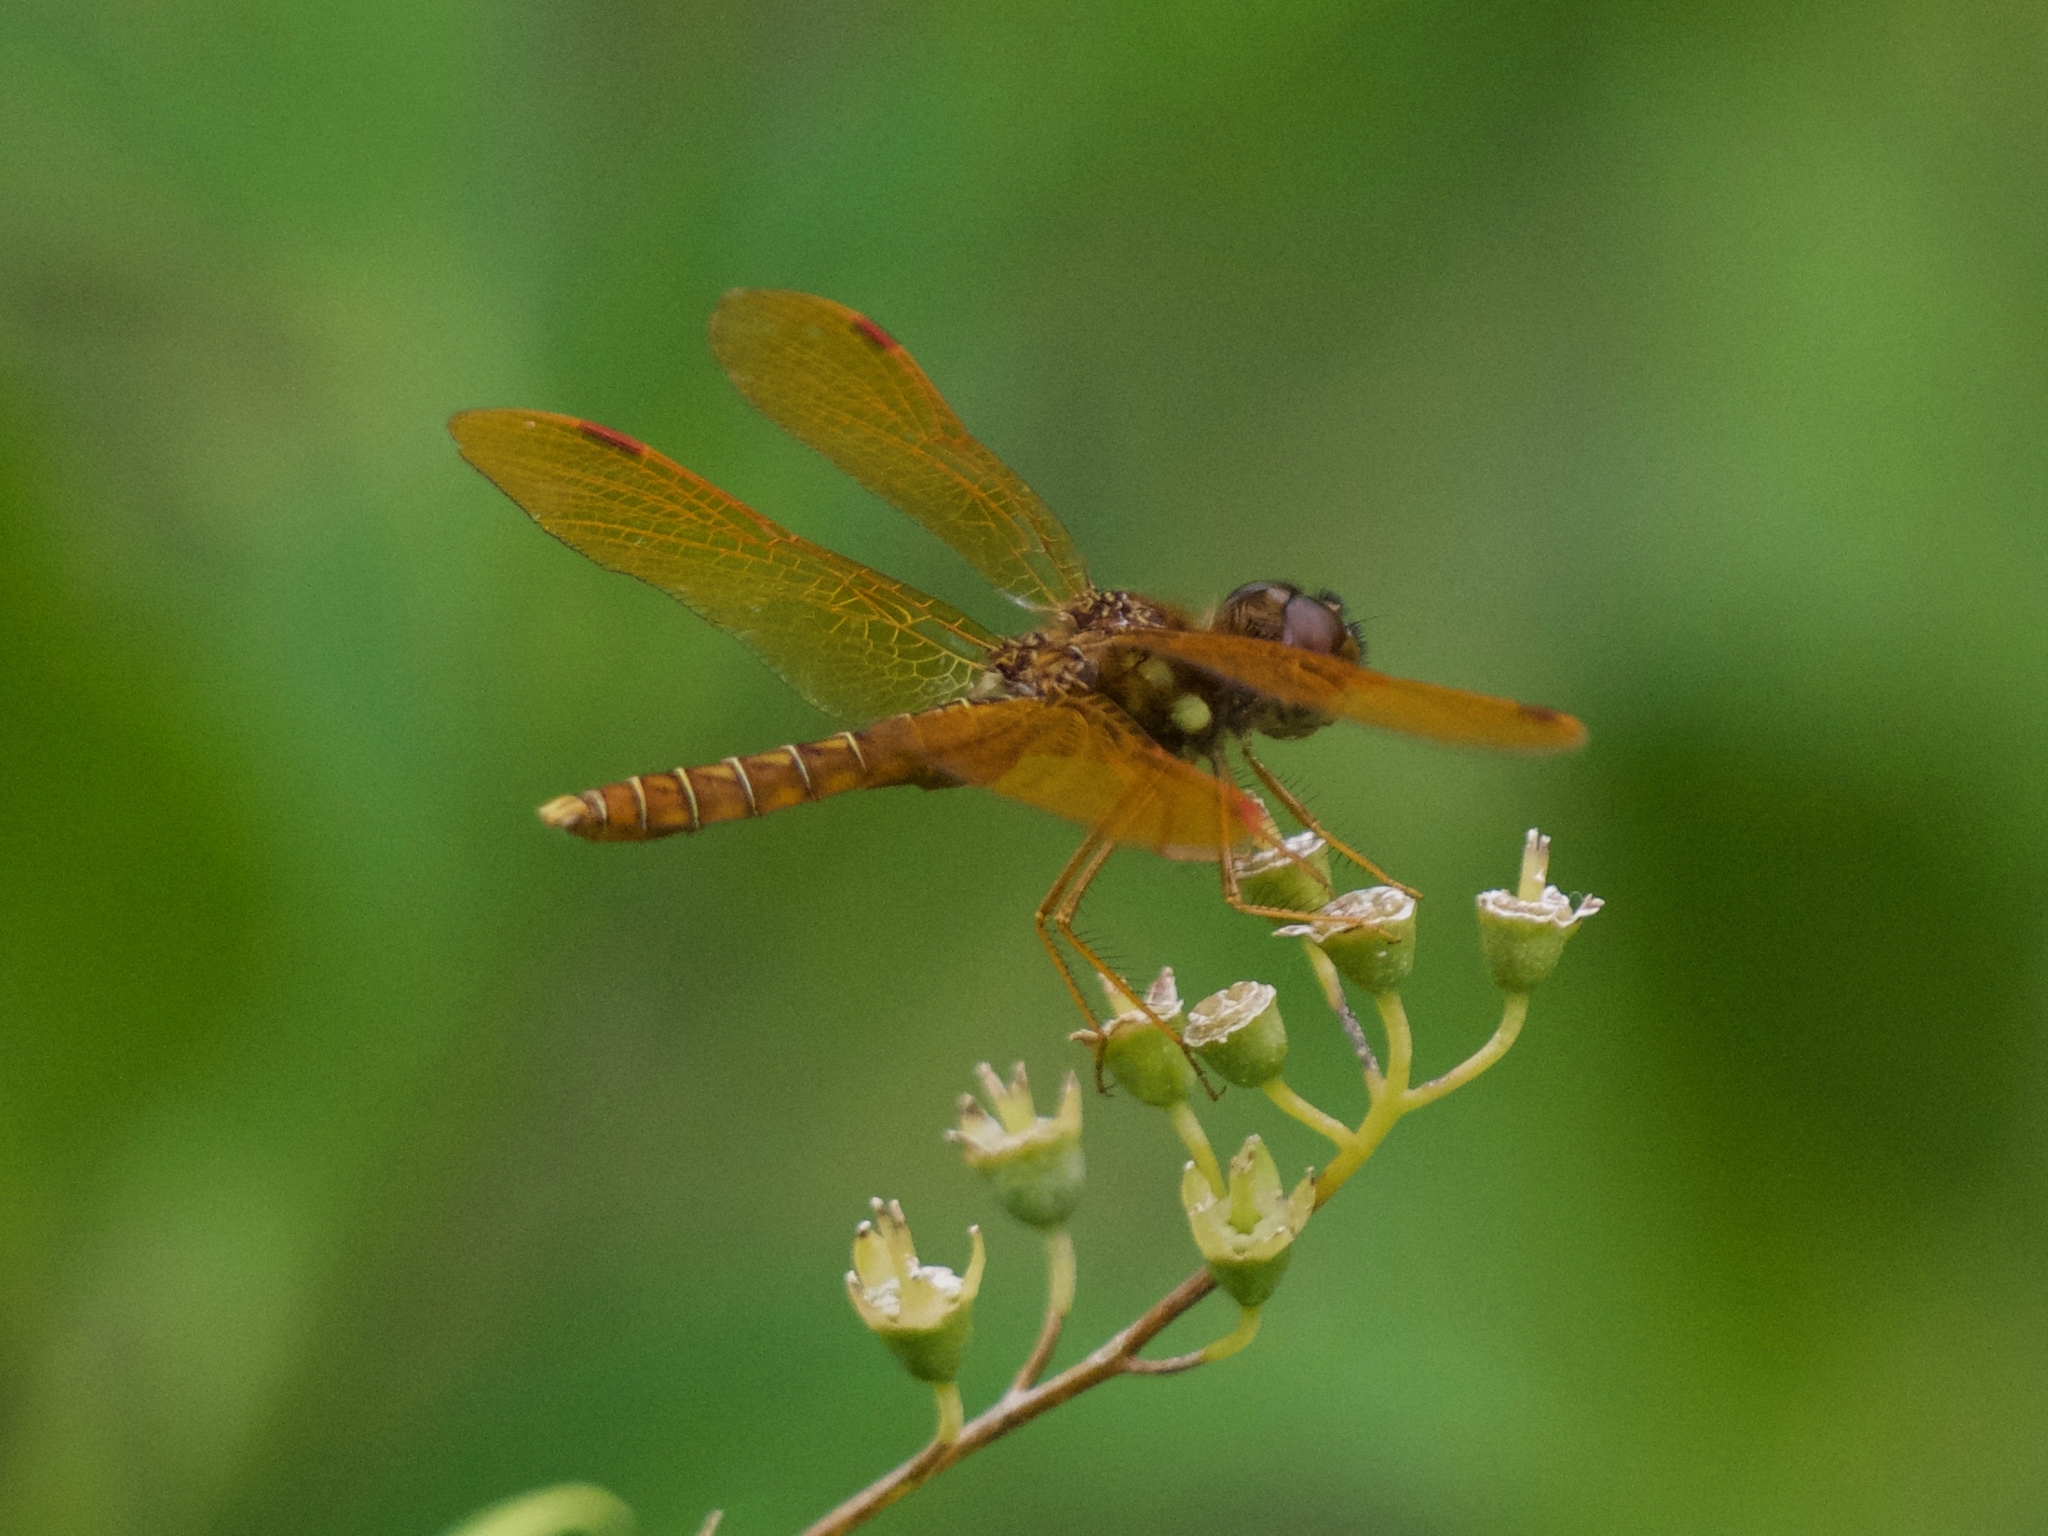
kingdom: Animalia
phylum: Arthropoda
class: Insecta
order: Odonata
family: Libellulidae
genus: Perithemis
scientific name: Perithemis tenera
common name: Eastern amberwing
